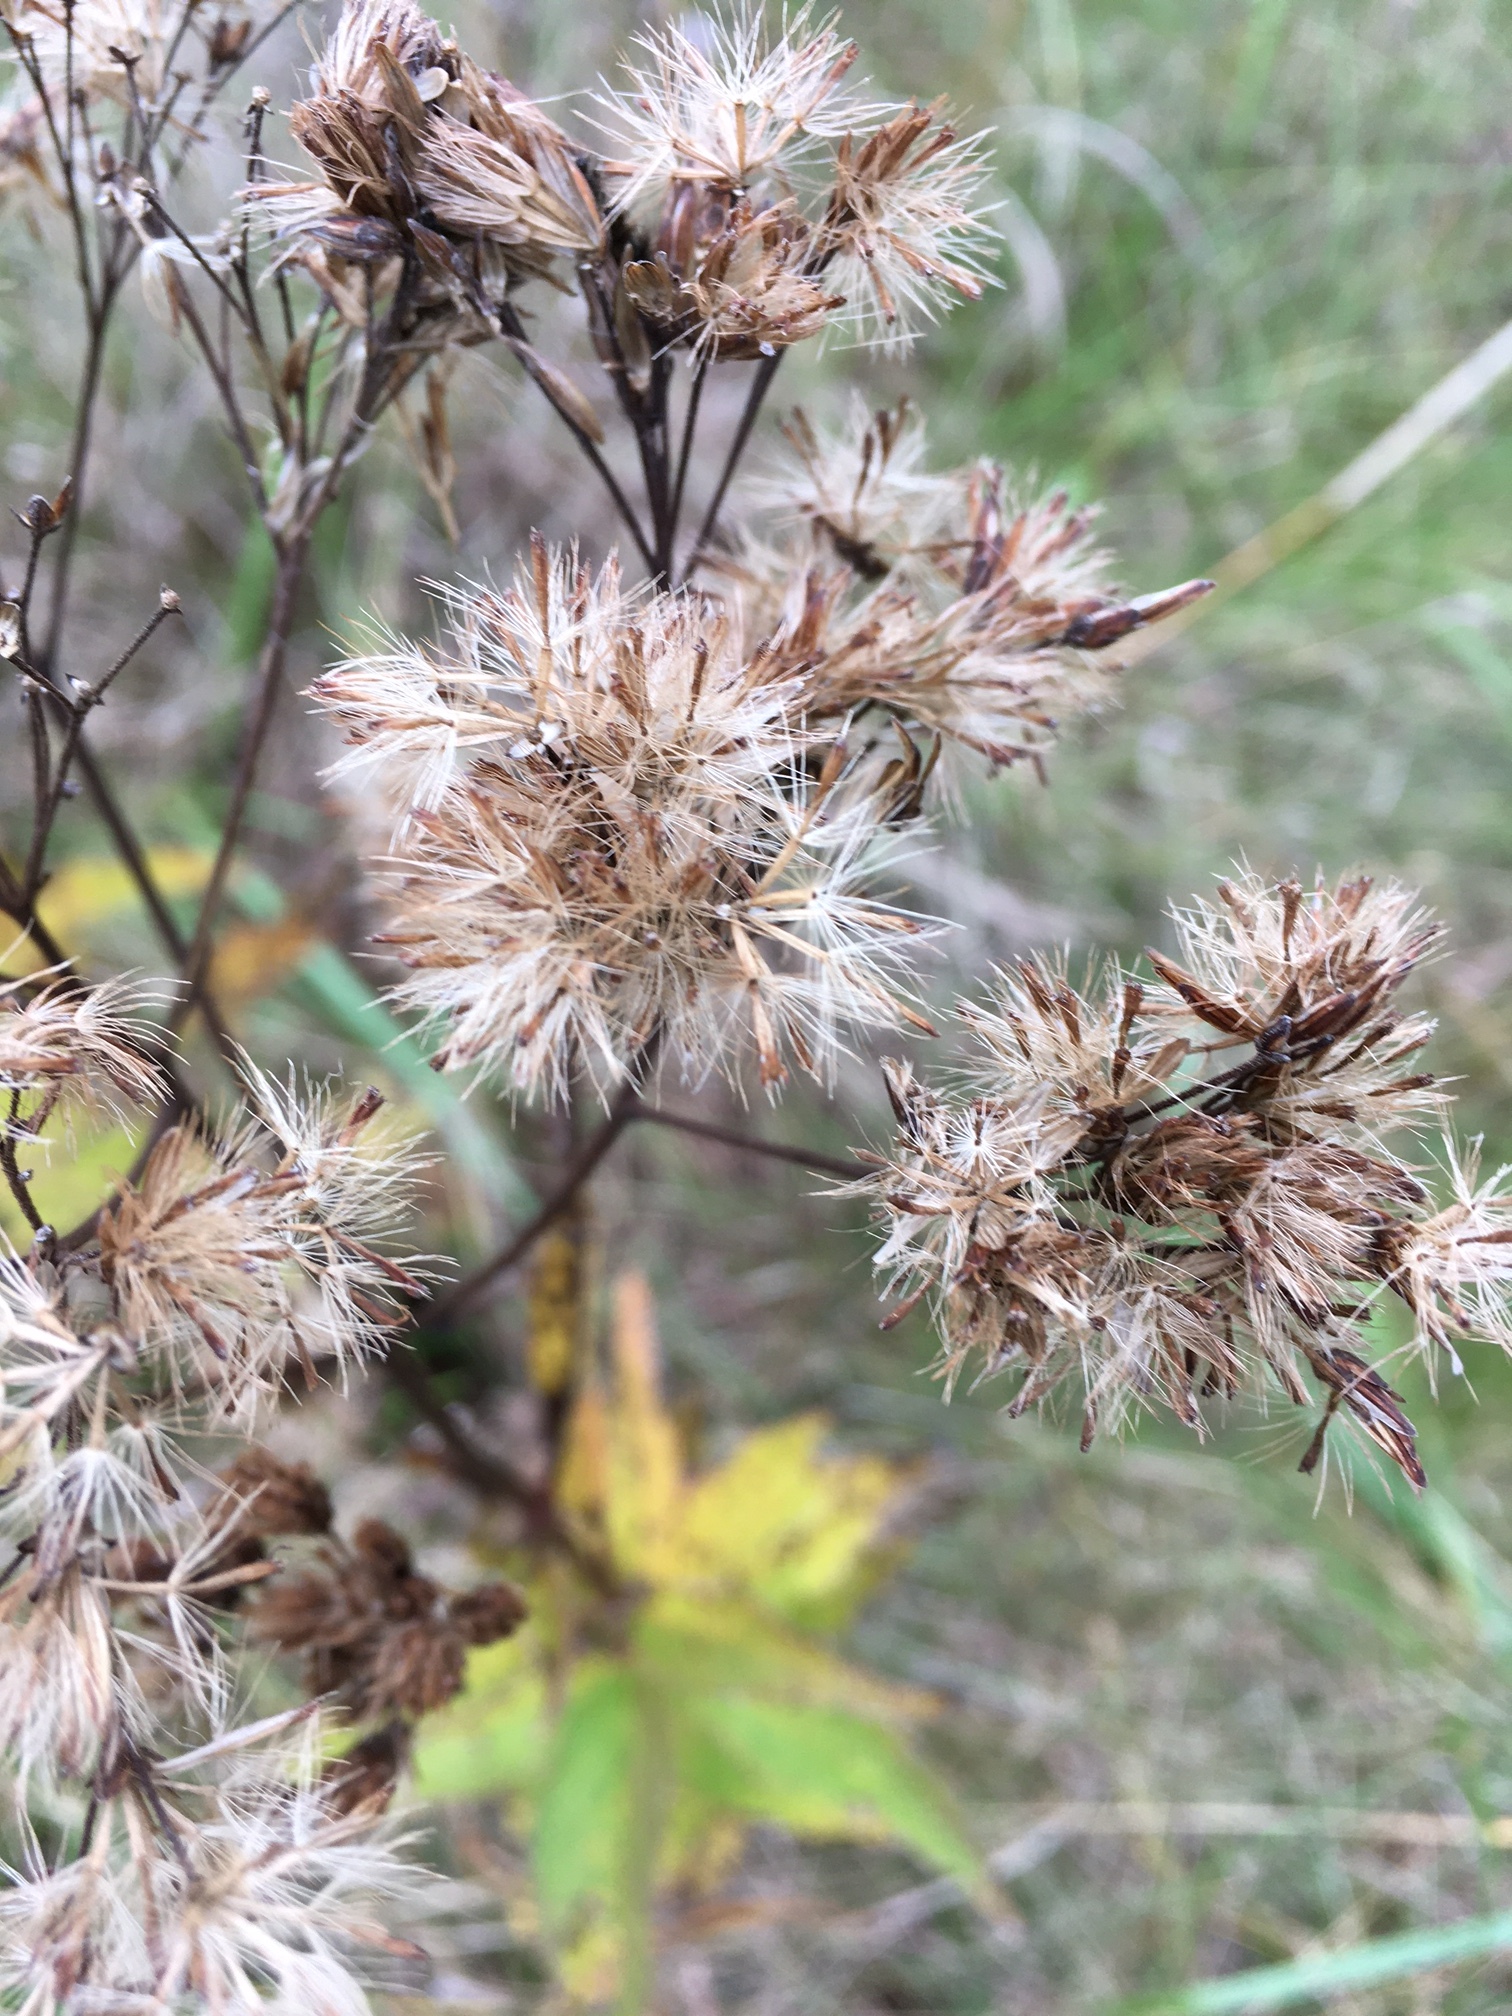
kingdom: Plantae
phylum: Tracheophyta
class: Magnoliopsida
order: Asterales
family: Asteraceae
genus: Eutrochium
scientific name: Eutrochium maculatum
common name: Spotted joe pye weed
